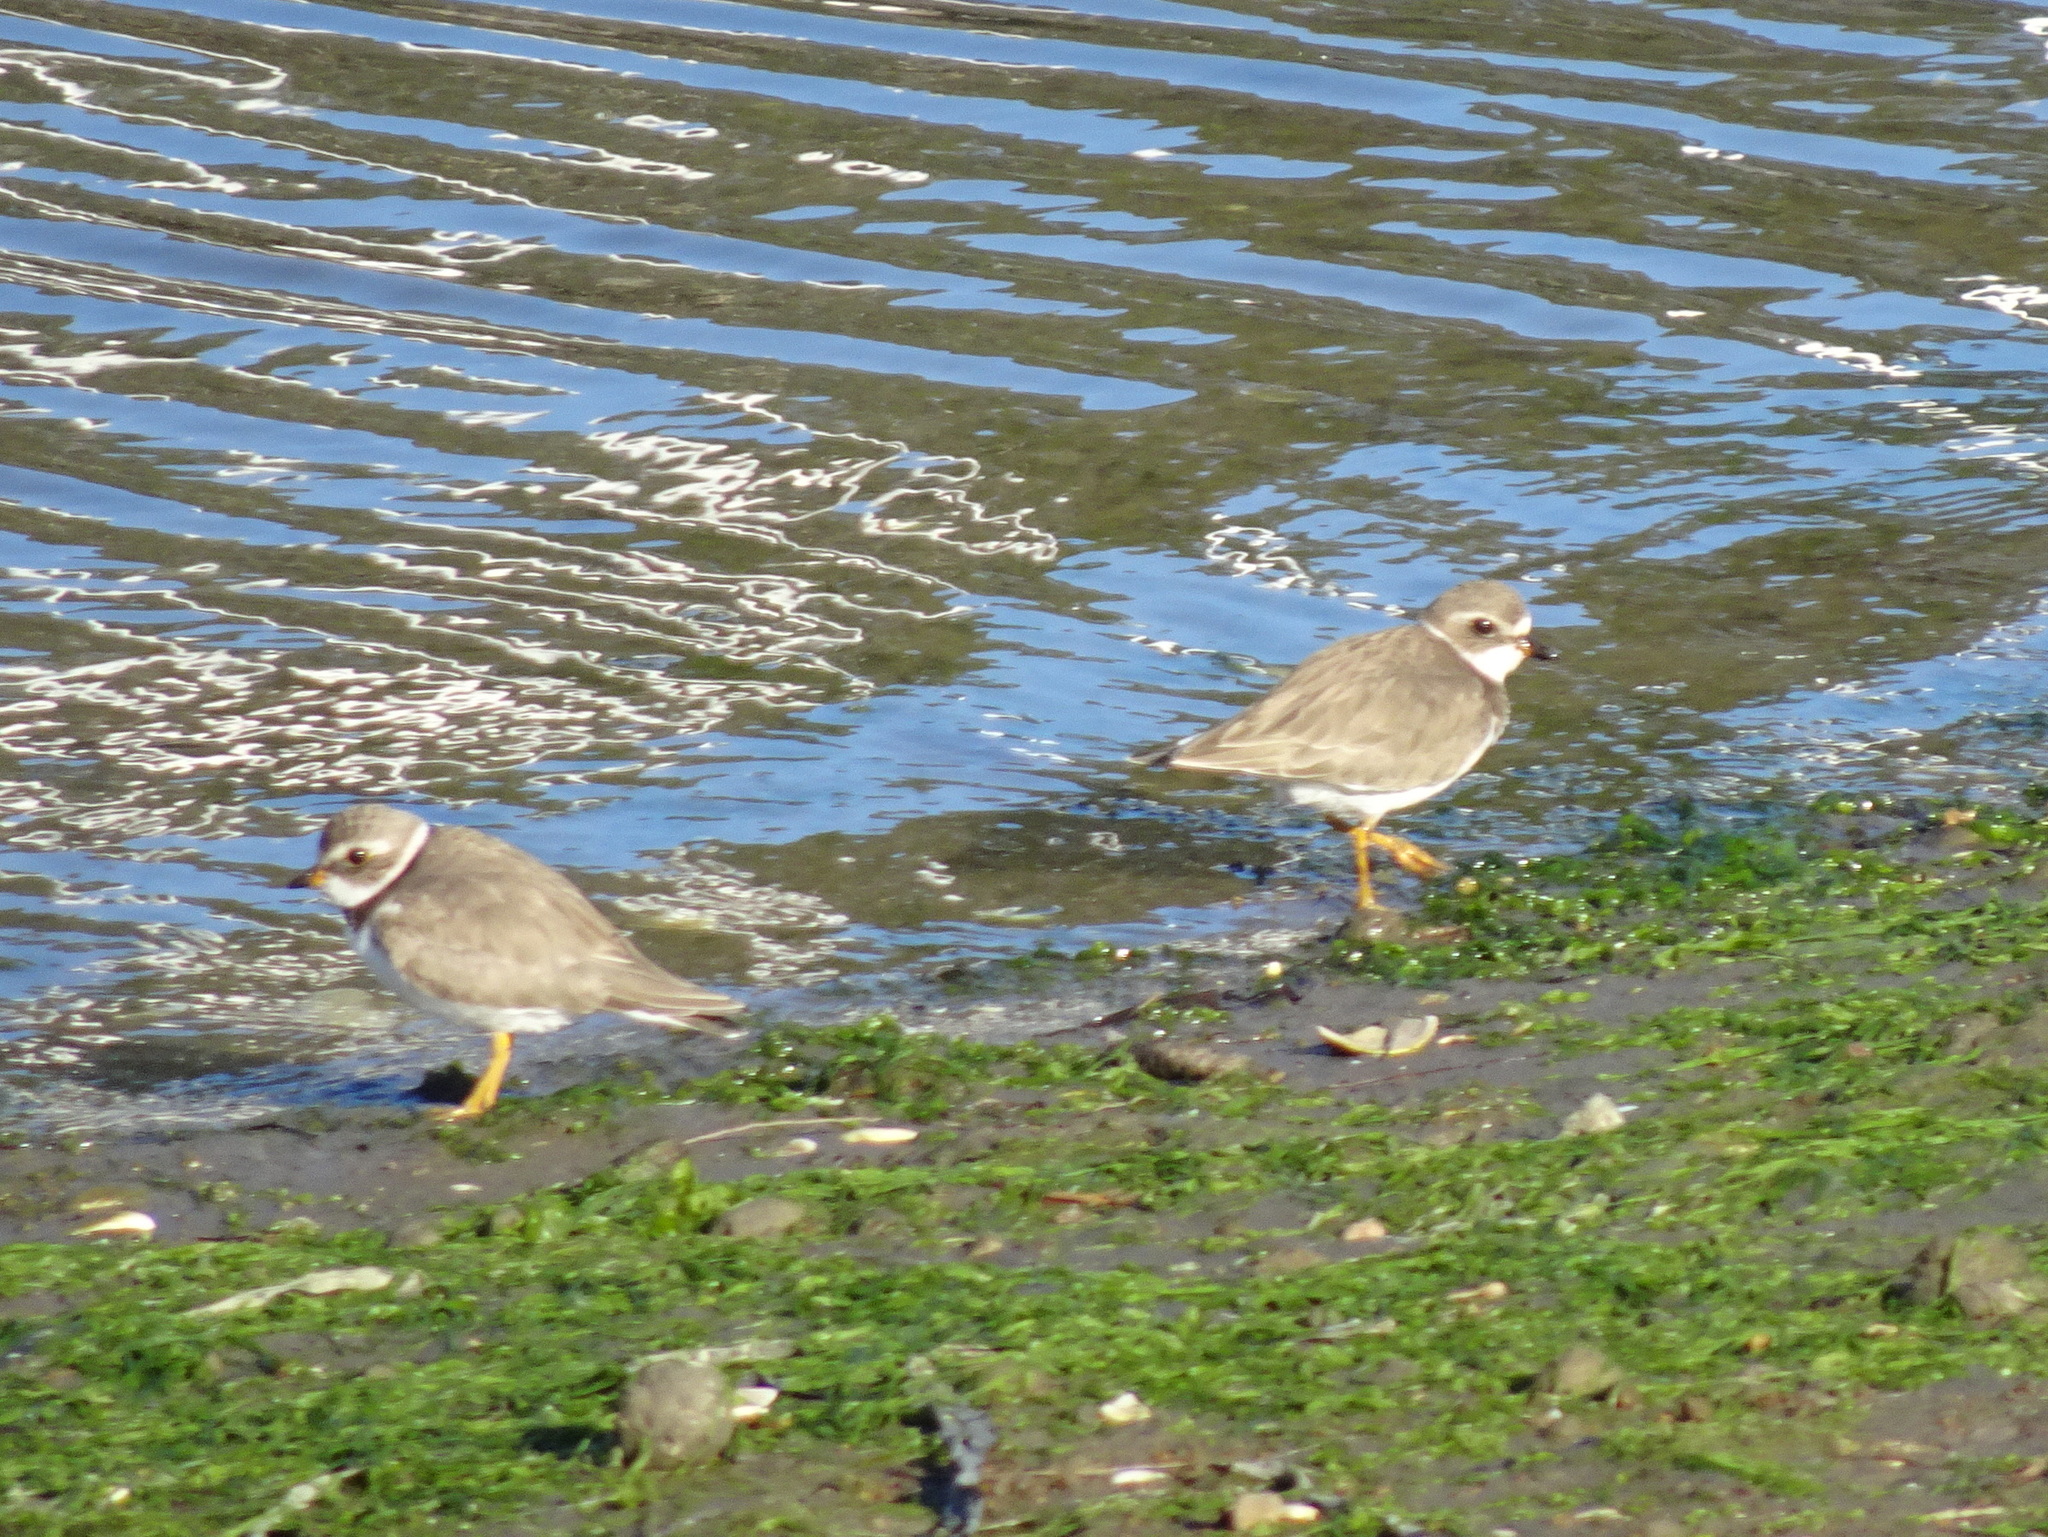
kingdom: Animalia
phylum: Chordata
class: Aves
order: Charadriiformes
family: Charadriidae
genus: Charadrius
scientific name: Charadrius semipalmatus
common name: Semipalmated plover
